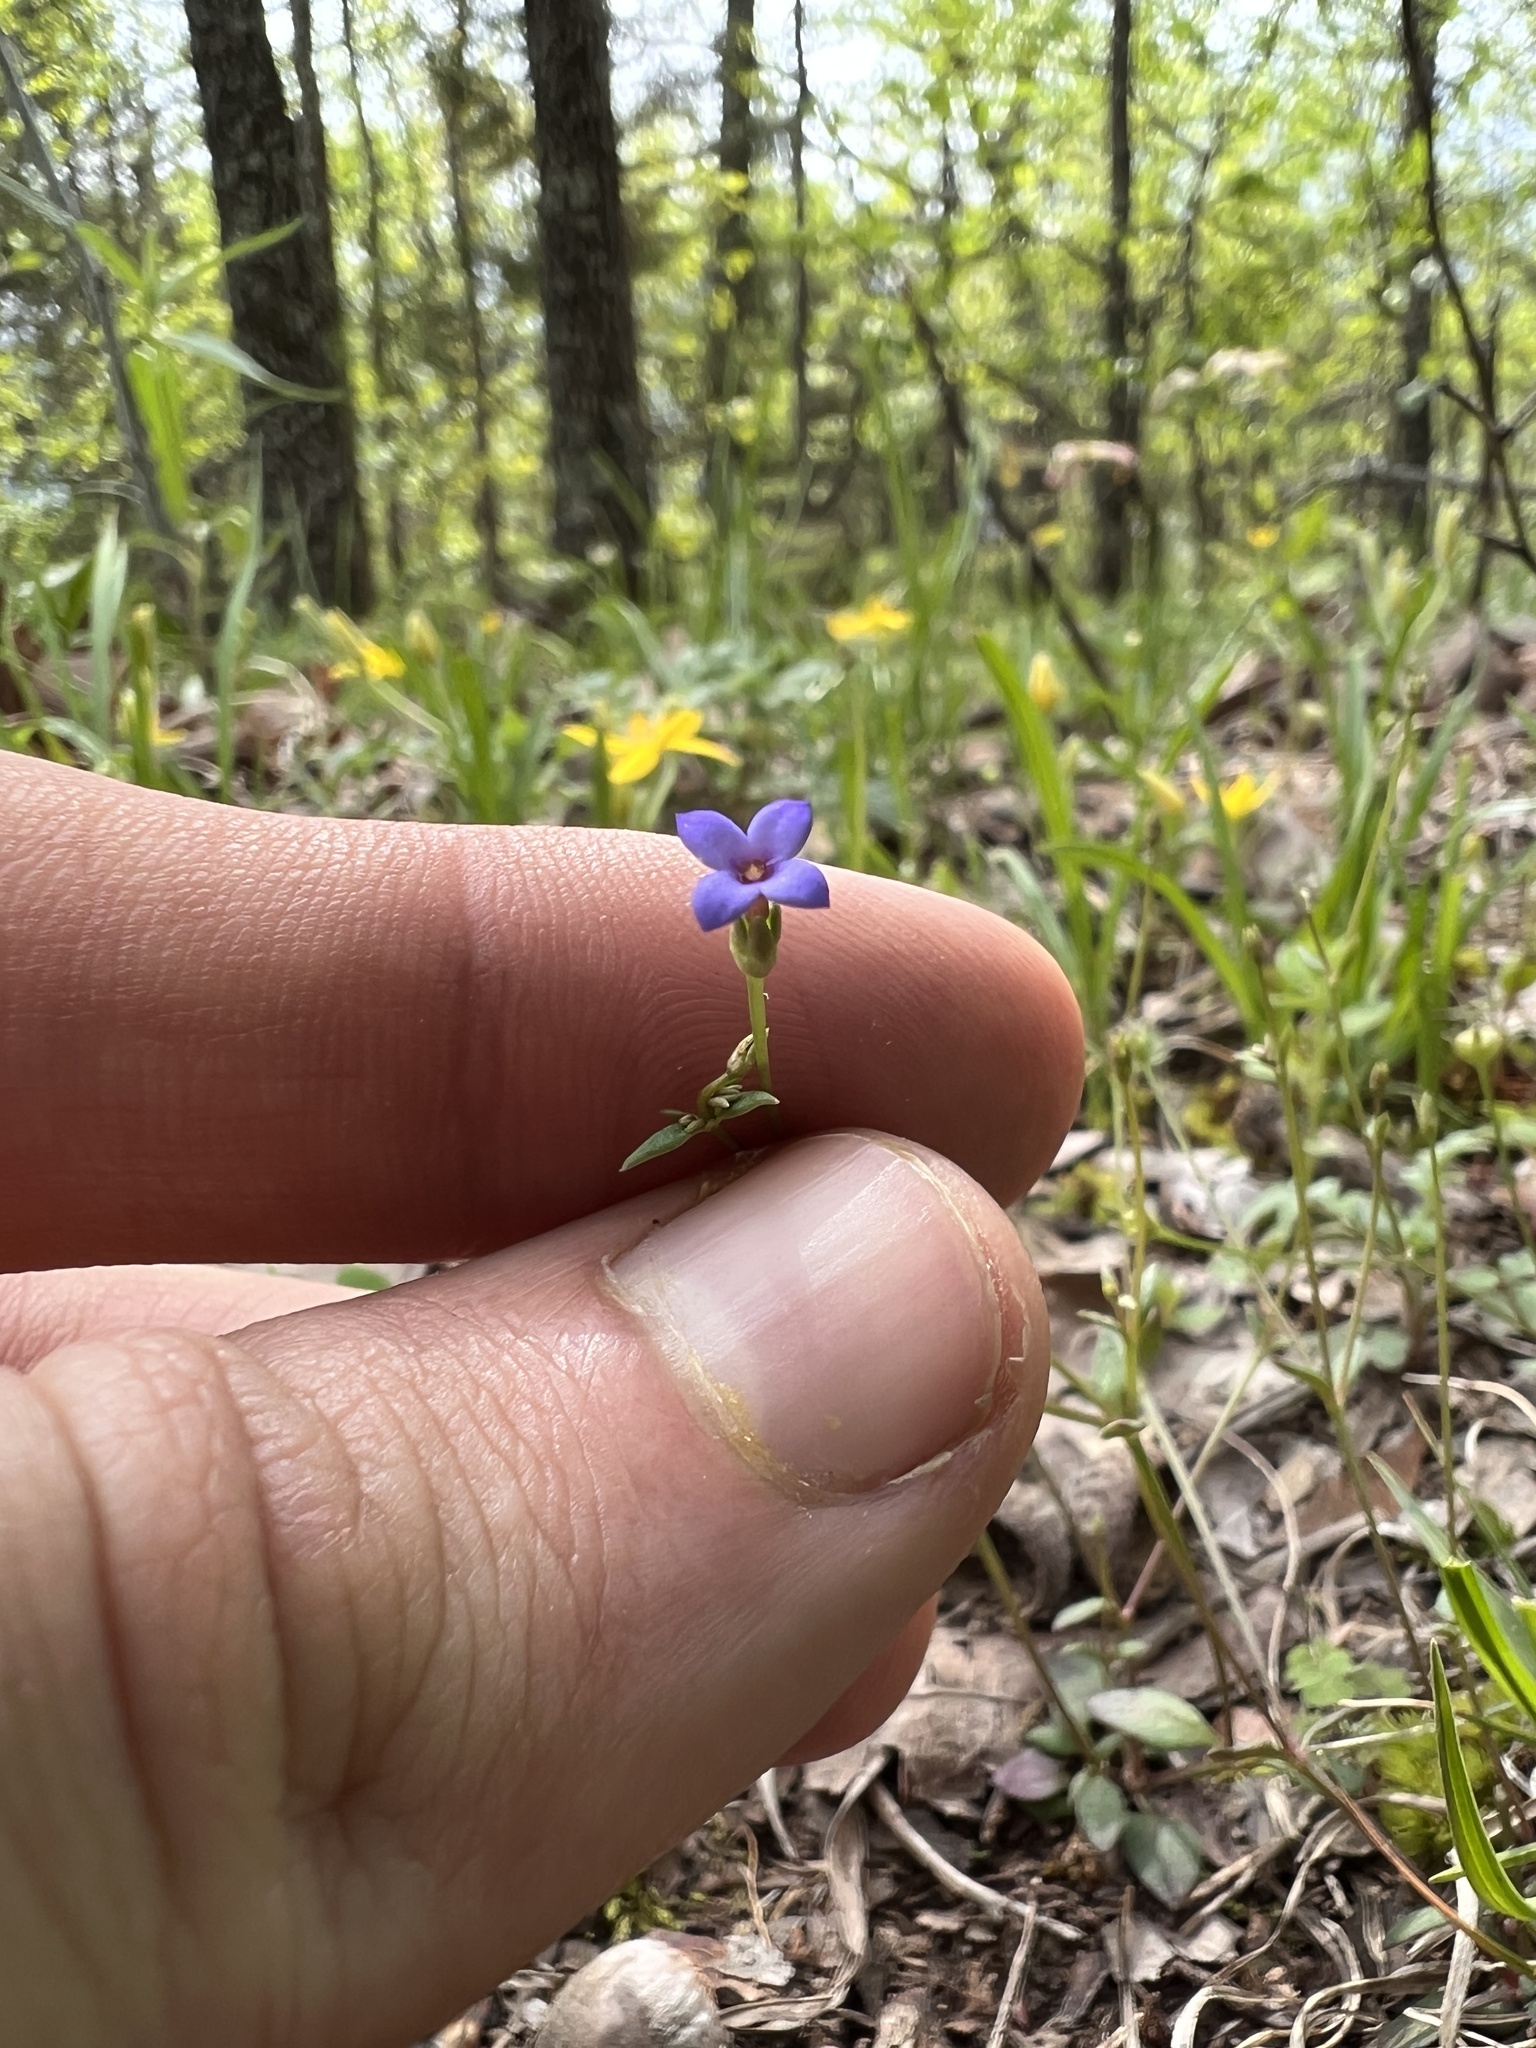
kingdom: Plantae
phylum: Tracheophyta
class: Magnoliopsida
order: Gentianales
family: Rubiaceae
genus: Houstonia
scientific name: Houstonia pusilla
